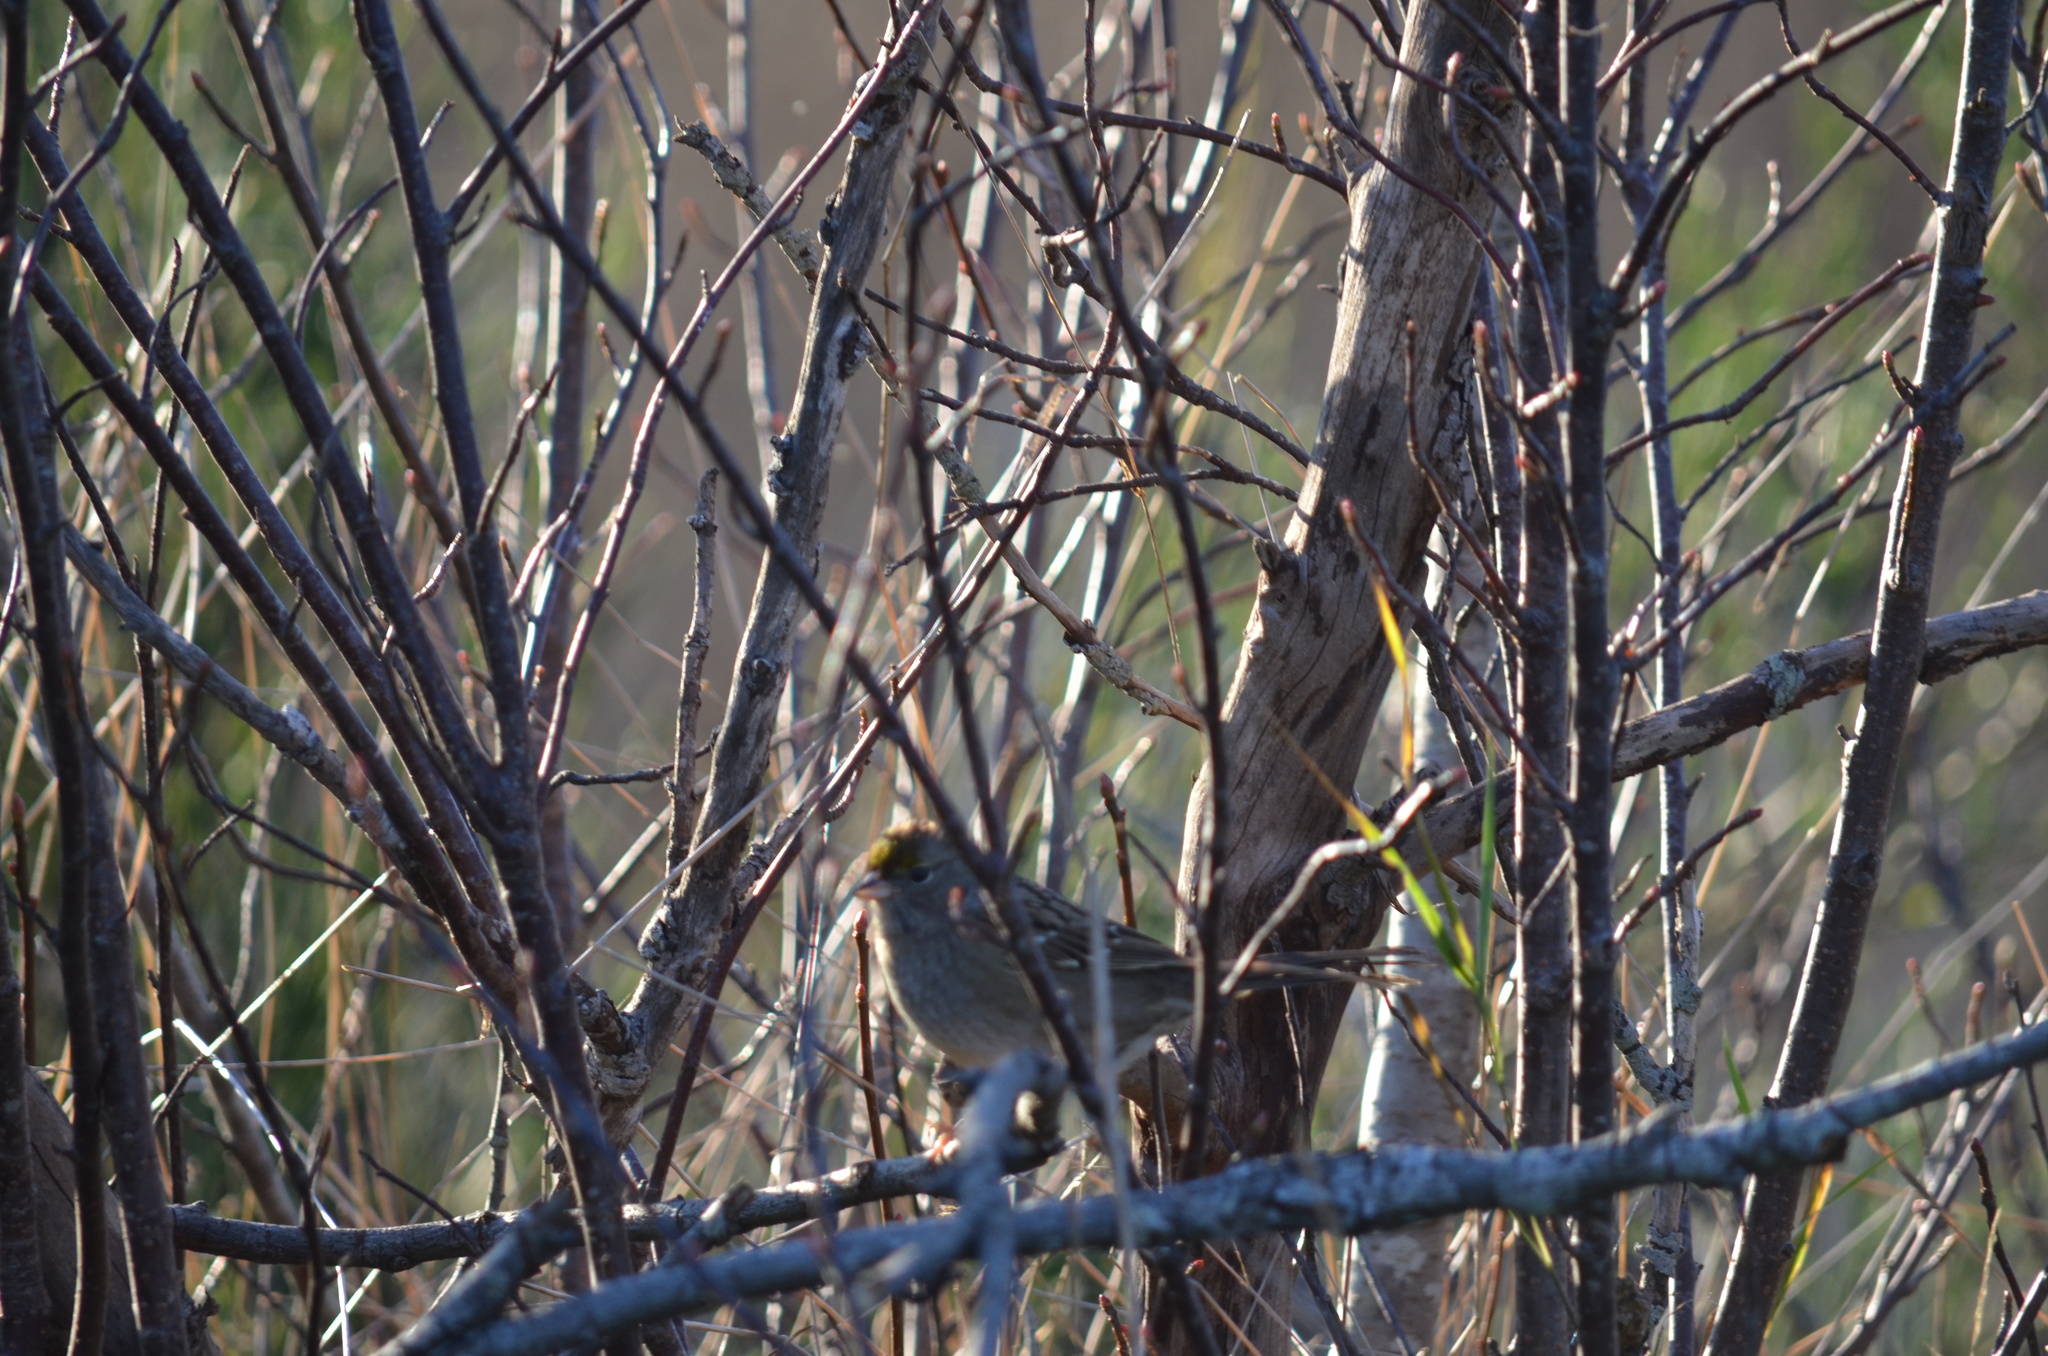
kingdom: Animalia
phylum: Chordata
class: Aves
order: Passeriformes
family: Passerellidae
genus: Zonotrichia
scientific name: Zonotrichia atricapilla
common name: Golden-crowned sparrow
